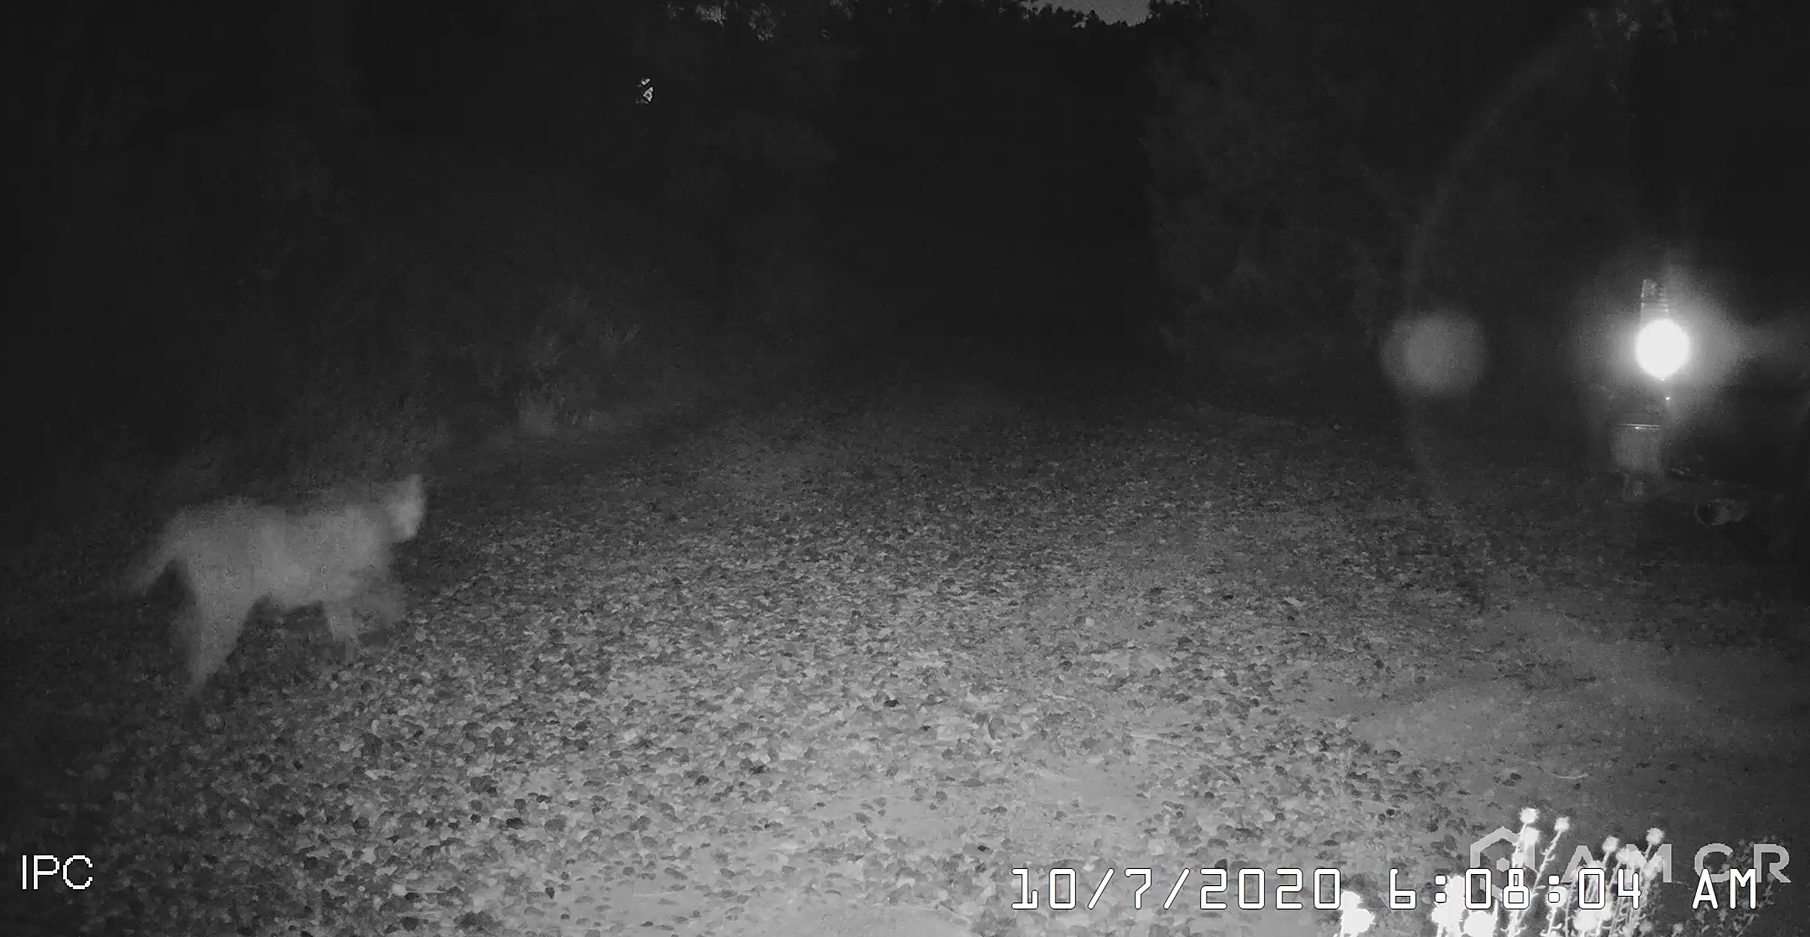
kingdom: Animalia
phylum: Chordata
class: Mammalia
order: Carnivora
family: Felidae
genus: Puma
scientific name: Puma concolor
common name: Puma
